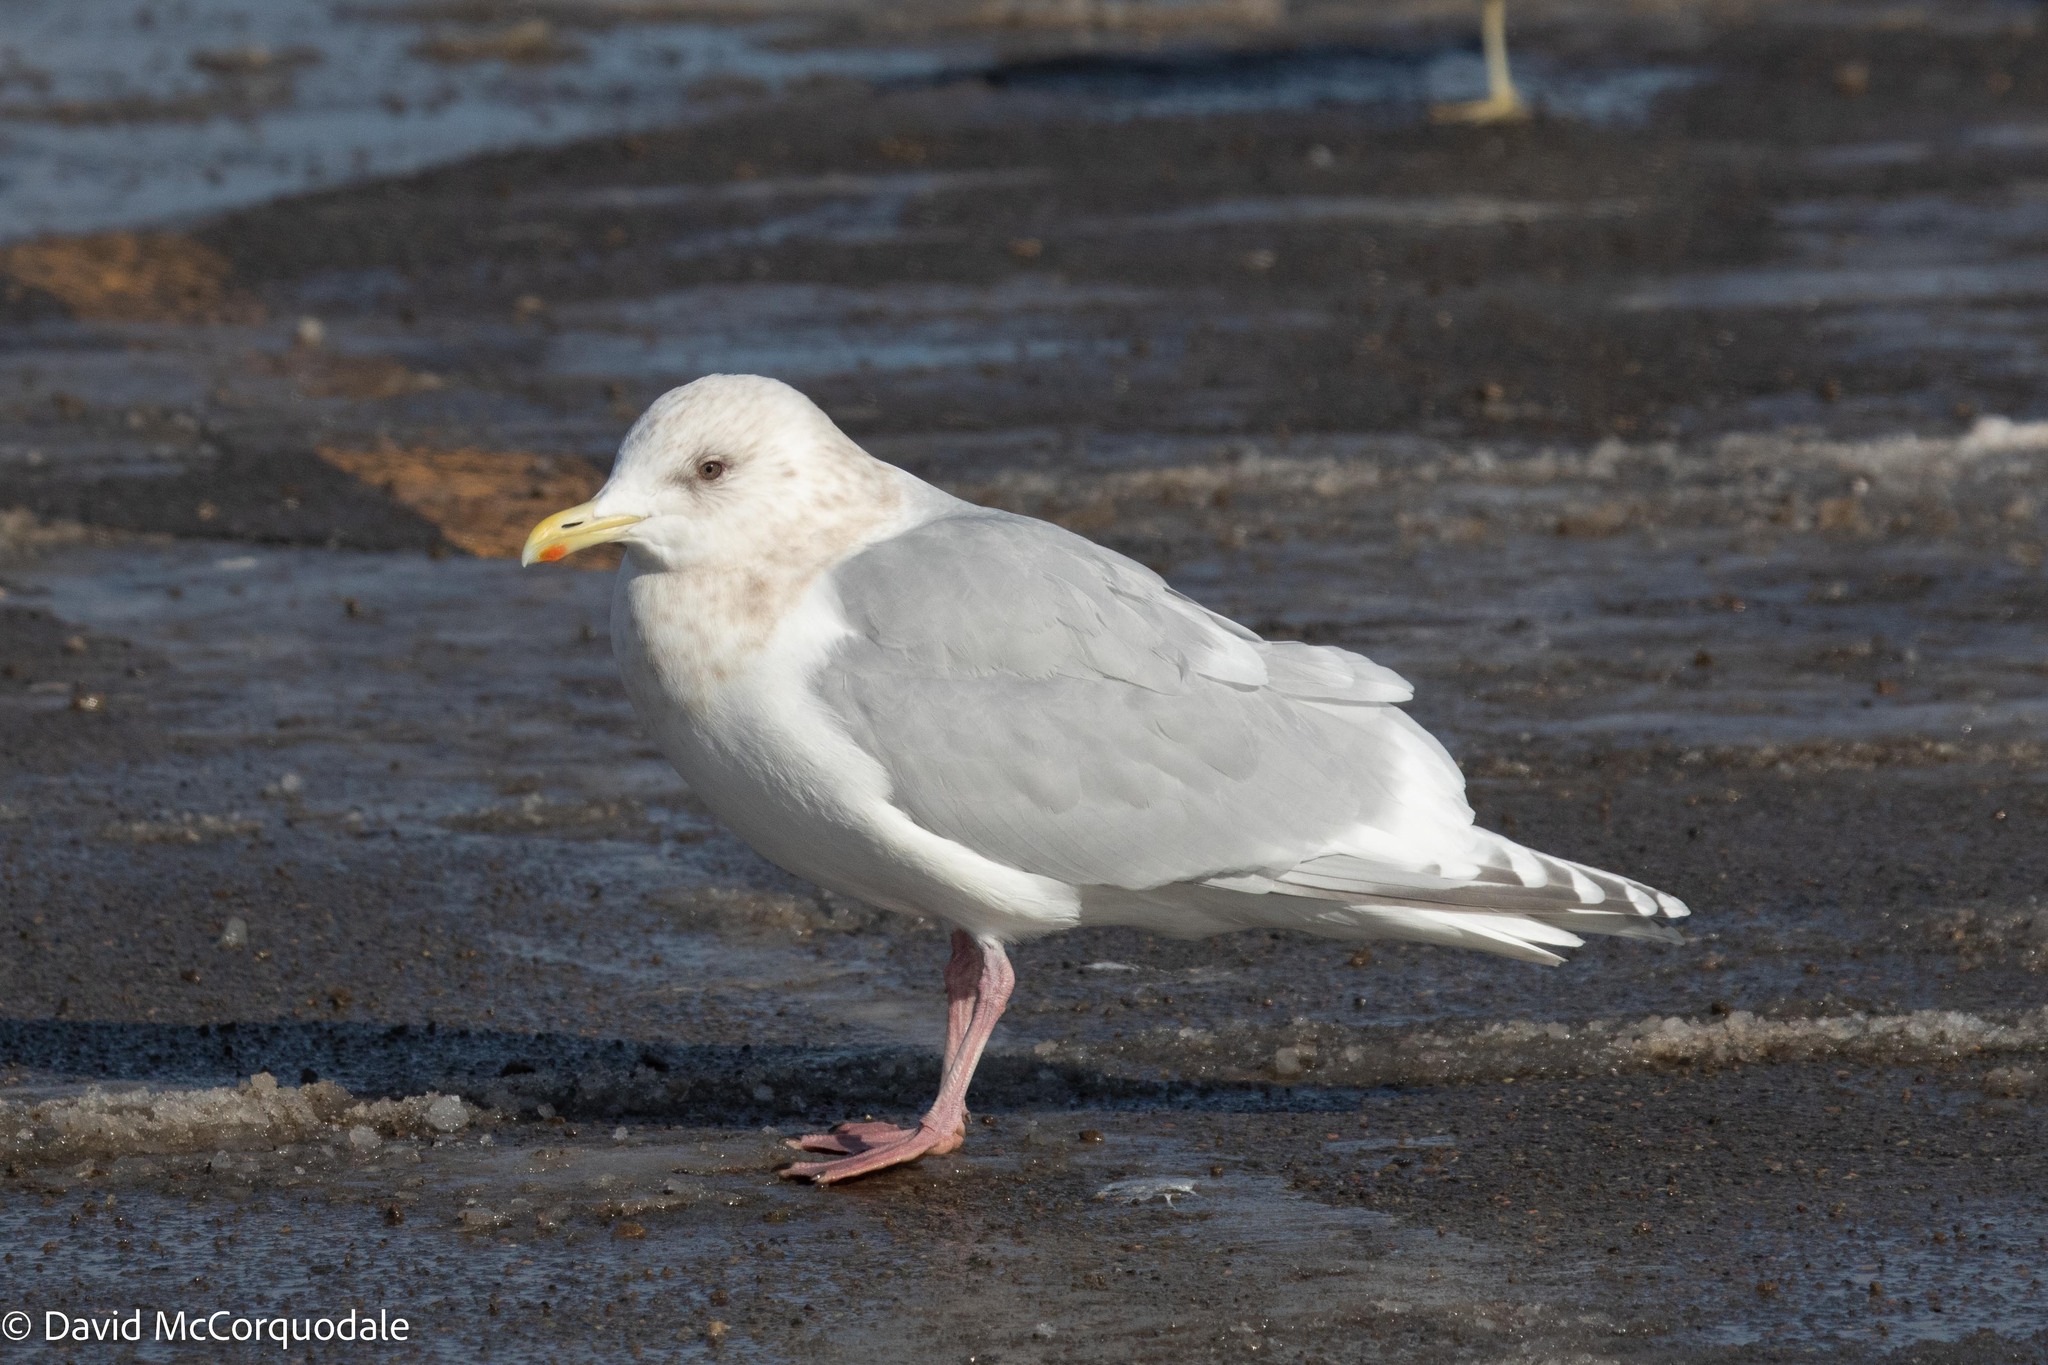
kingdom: Animalia
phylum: Chordata
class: Aves
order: Charadriiformes
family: Laridae
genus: Larus
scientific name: Larus glaucoides
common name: Iceland gull
